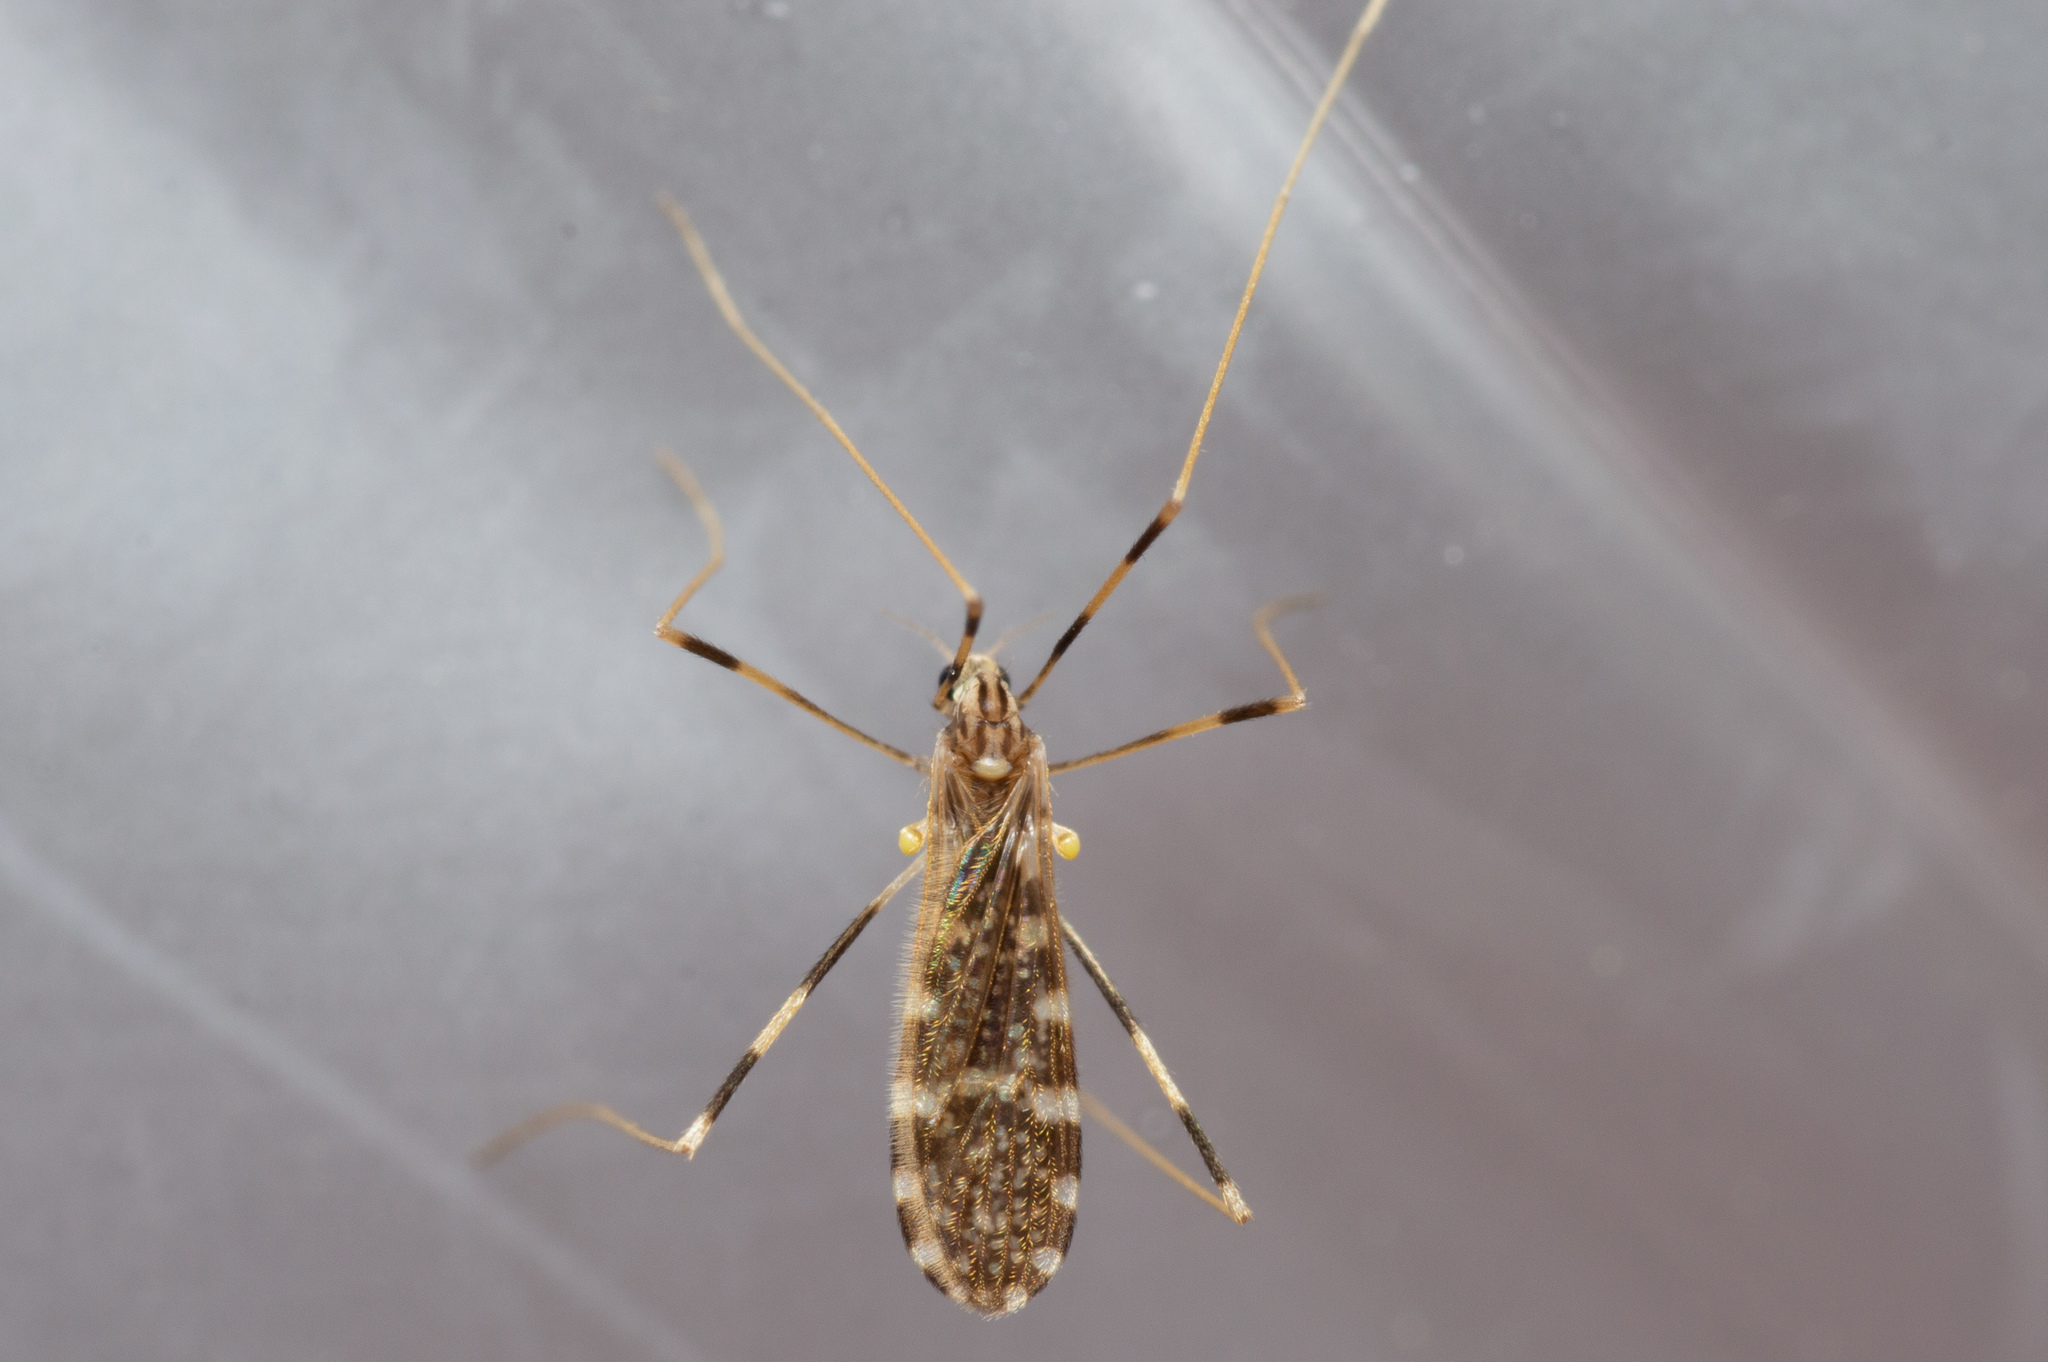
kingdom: Animalia
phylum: Arthropoda
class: Insecta
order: Diptera
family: Limoniidae
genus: Erioptera
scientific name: Erioptera caliptera
